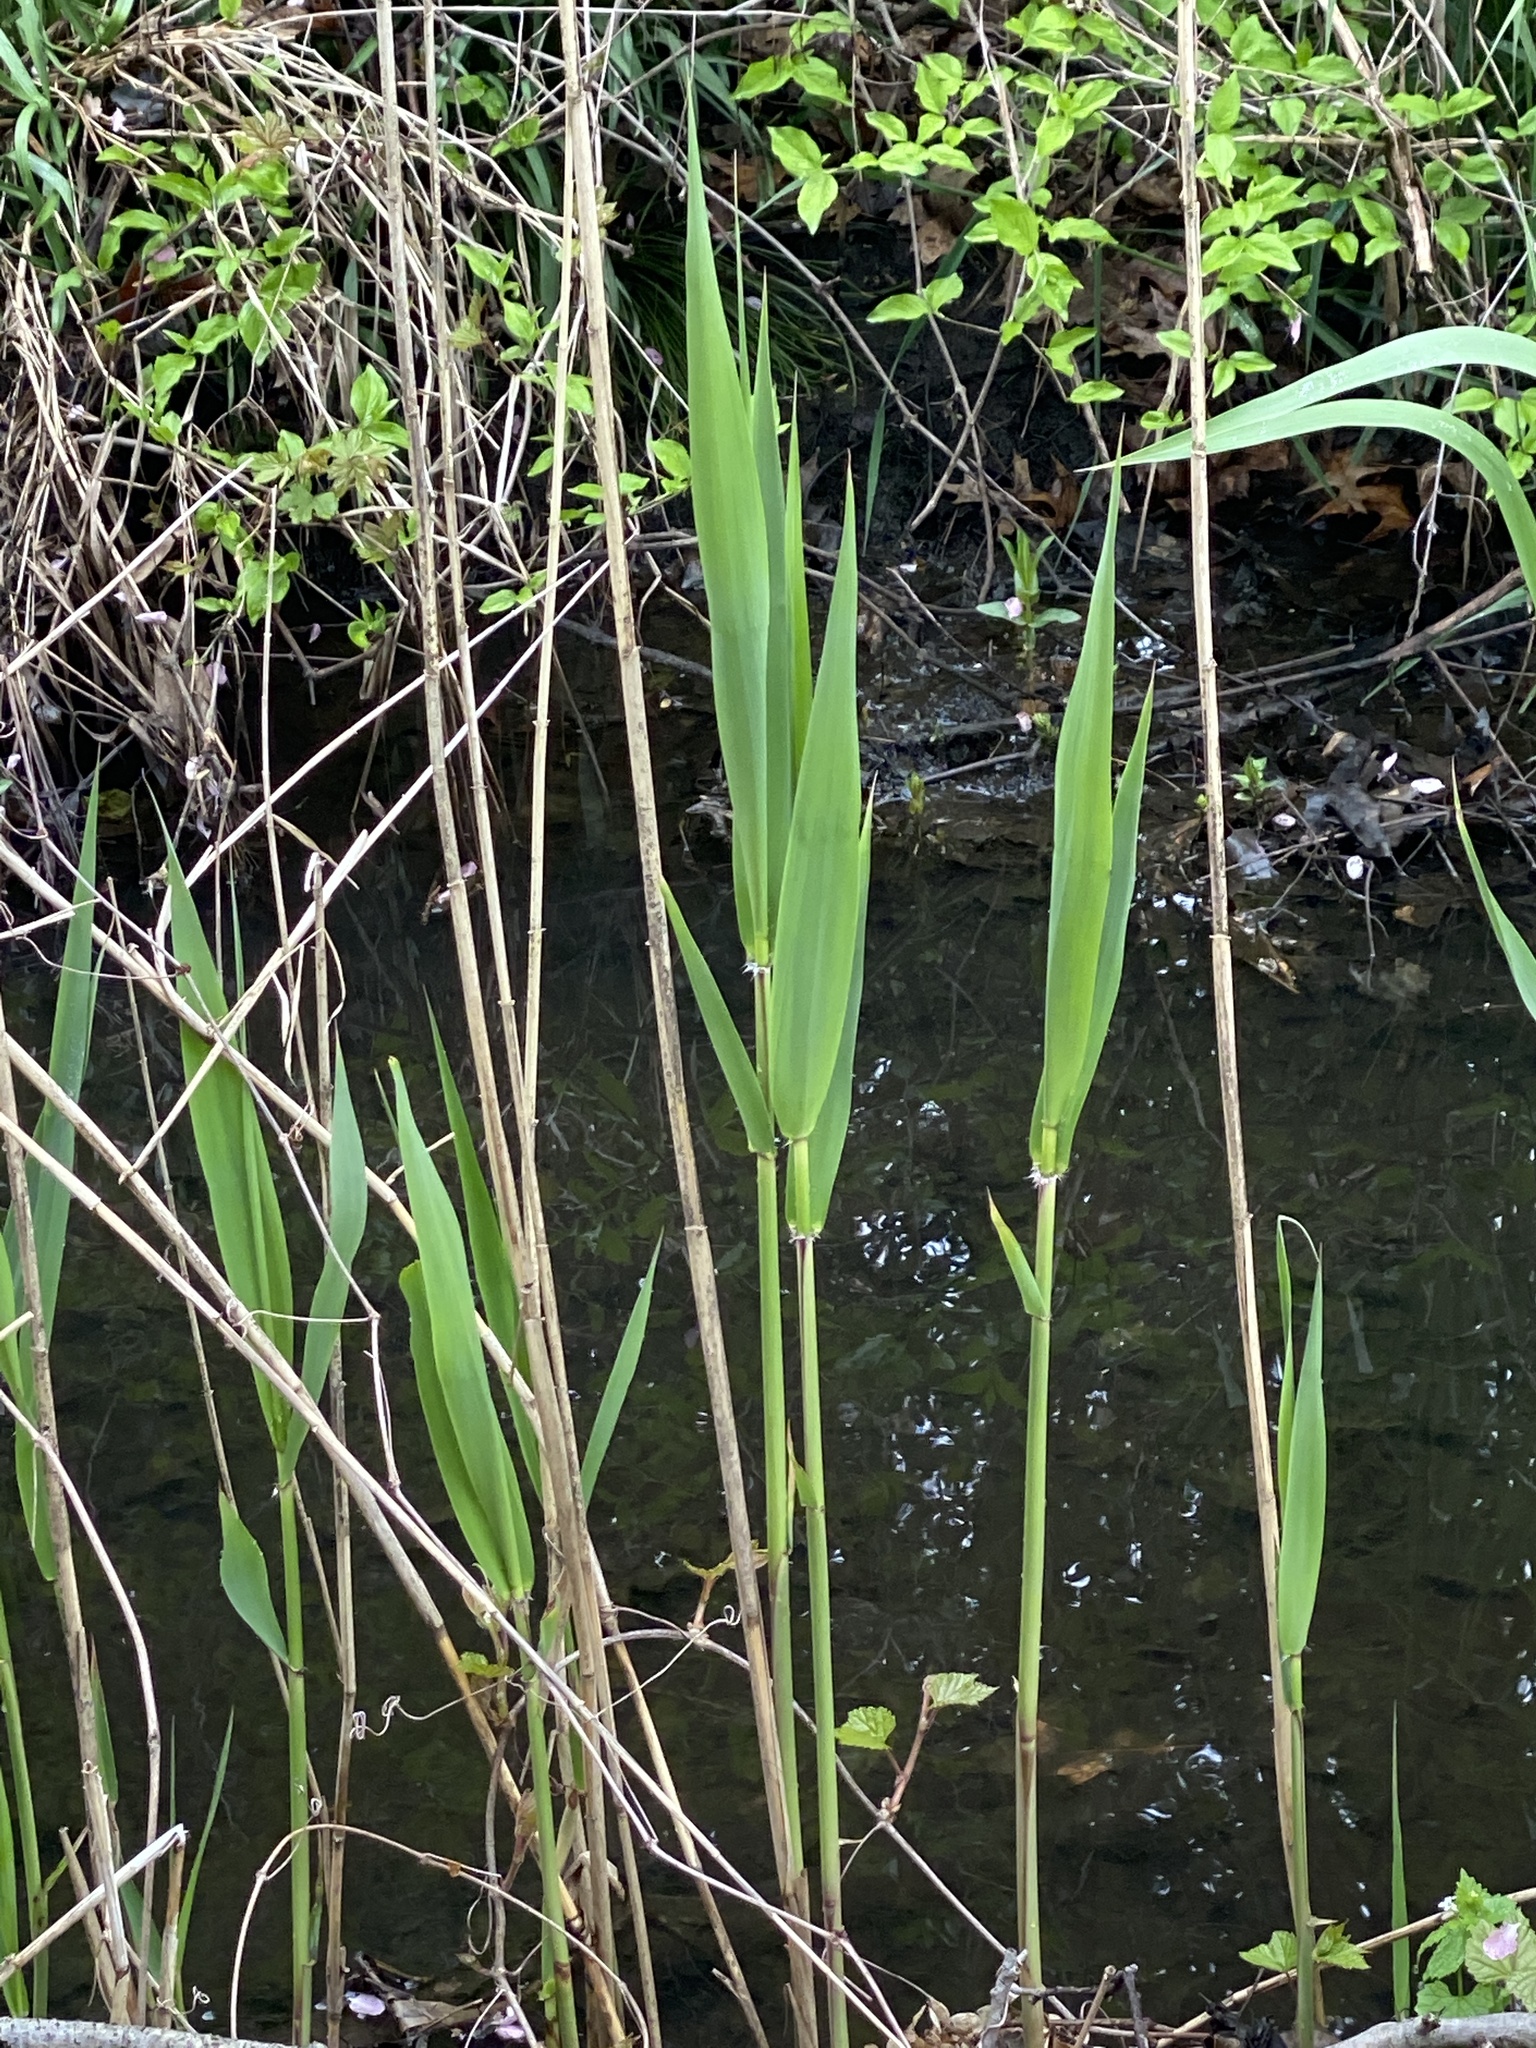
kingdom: Plantae
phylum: Tracheophyta
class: Liliopsida
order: Poales
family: Poaceae
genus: Phragmites
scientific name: Phragmites australis
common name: Common reed
